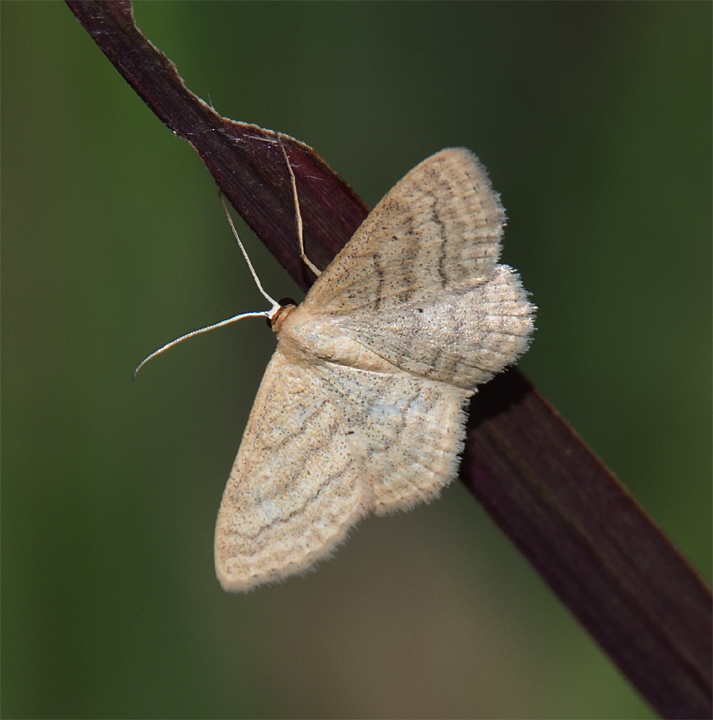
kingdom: Animalia
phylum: Arthropoda
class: Insecta
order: Lepidoptera
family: Geometridae
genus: Scopula
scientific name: Scopula inductata
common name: Soft-lined wave
